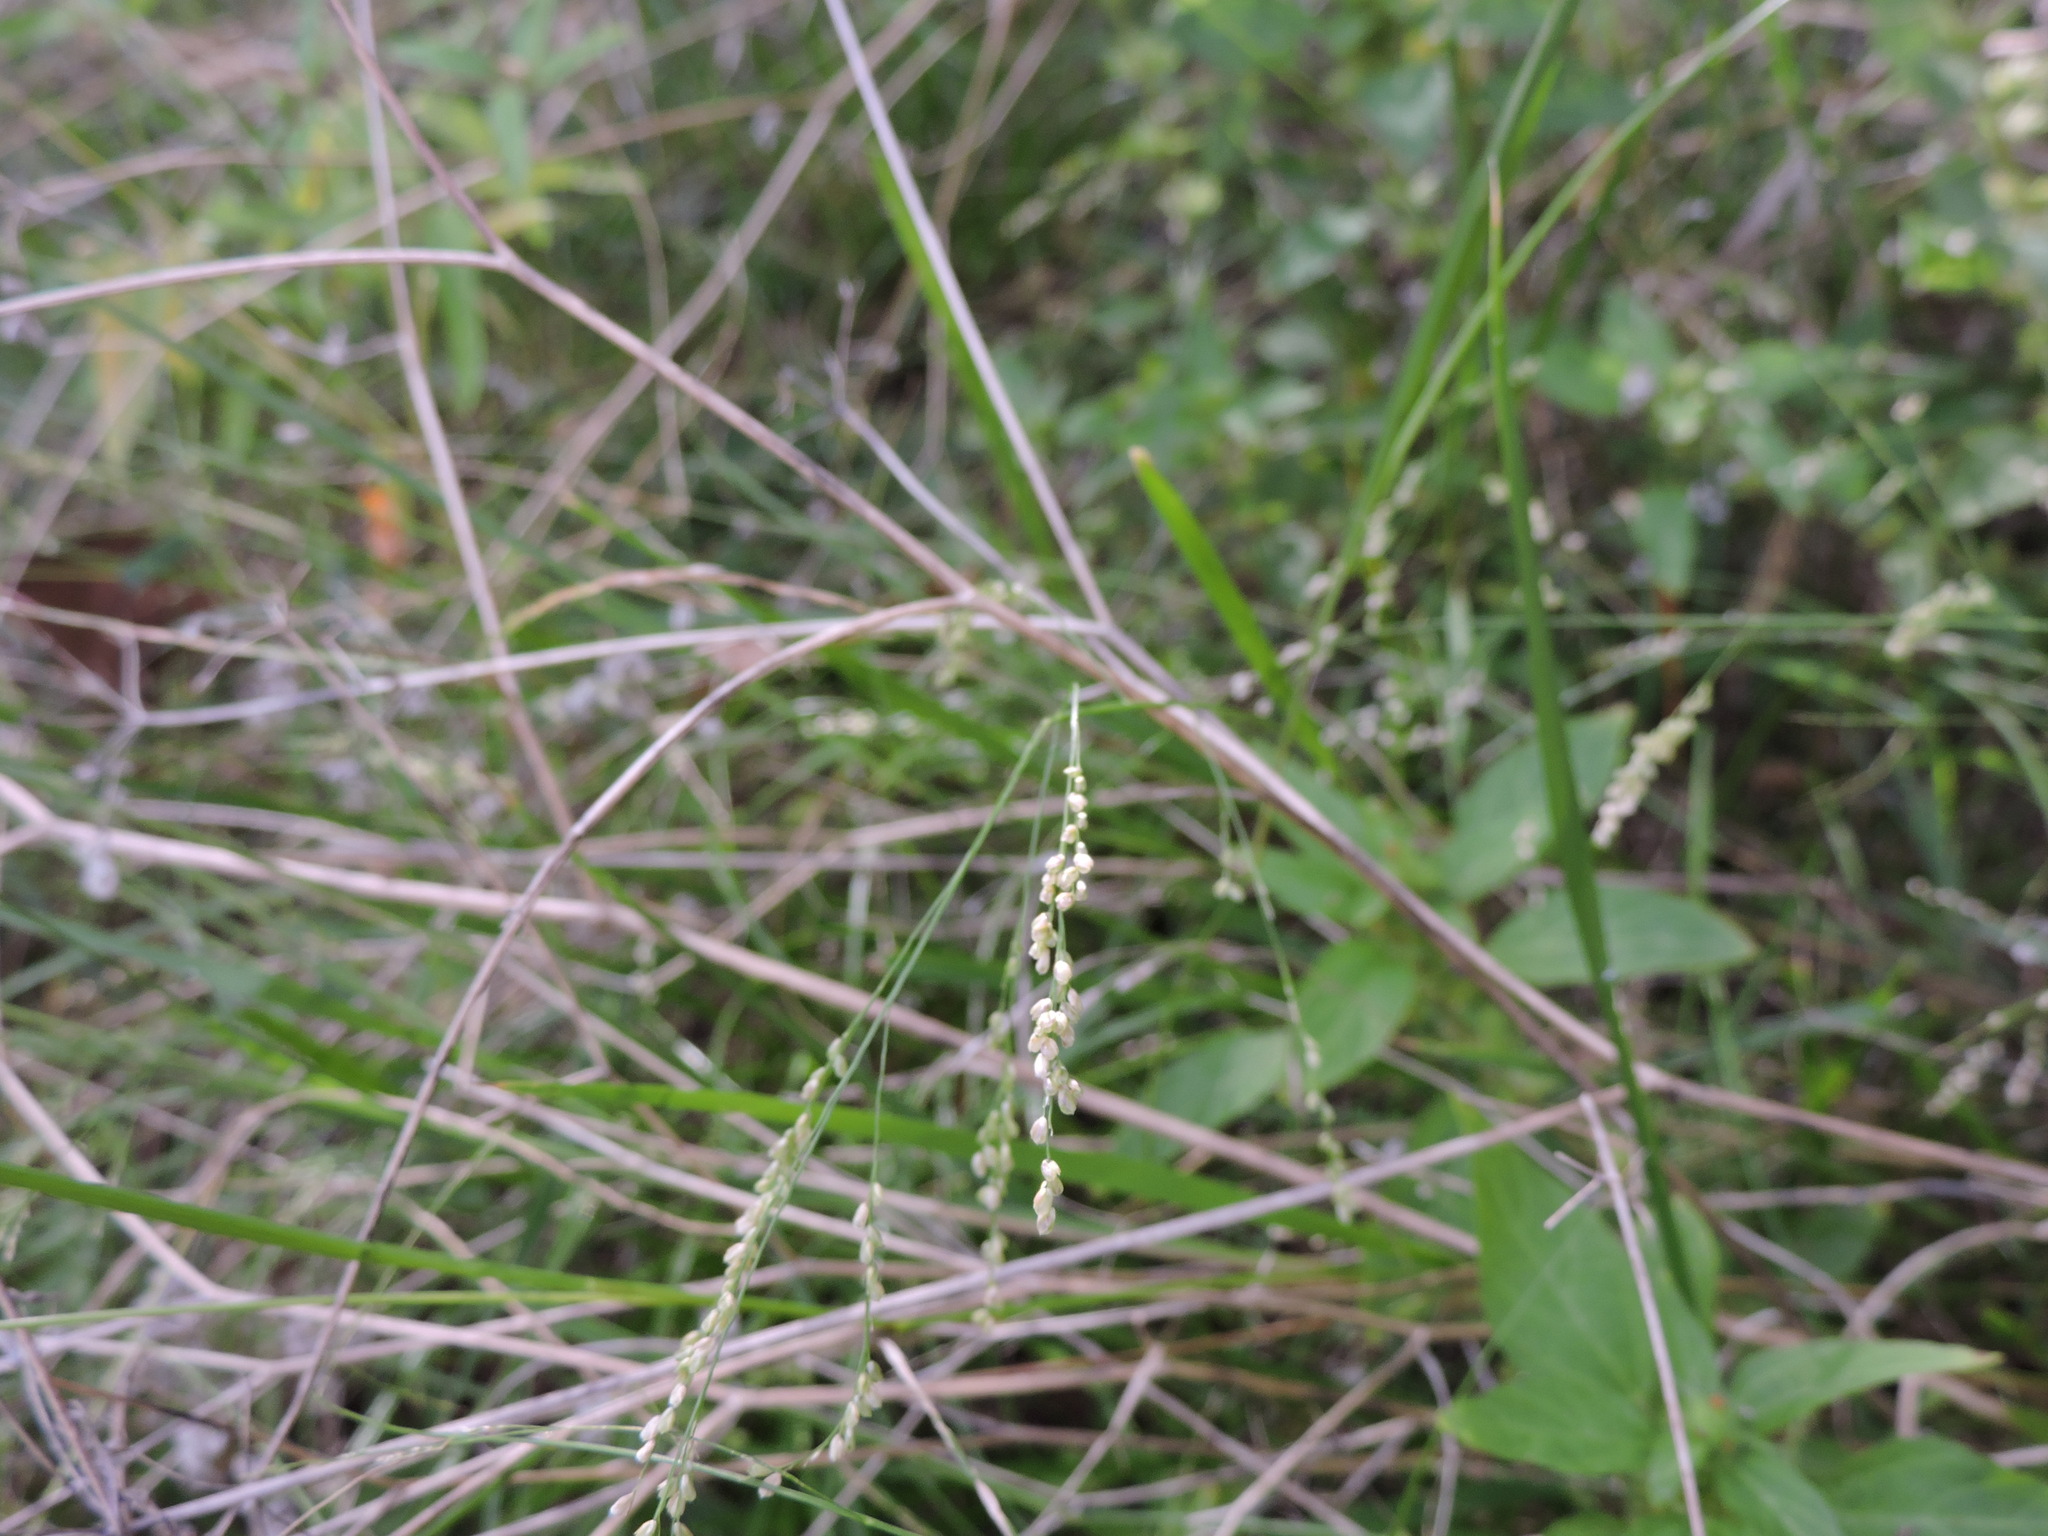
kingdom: Plantae
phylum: Tracheophyta
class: Liliopsida
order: Poales
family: Poaceae
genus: Steinchisma
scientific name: Steinchisma hians
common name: Gaping panic grass
